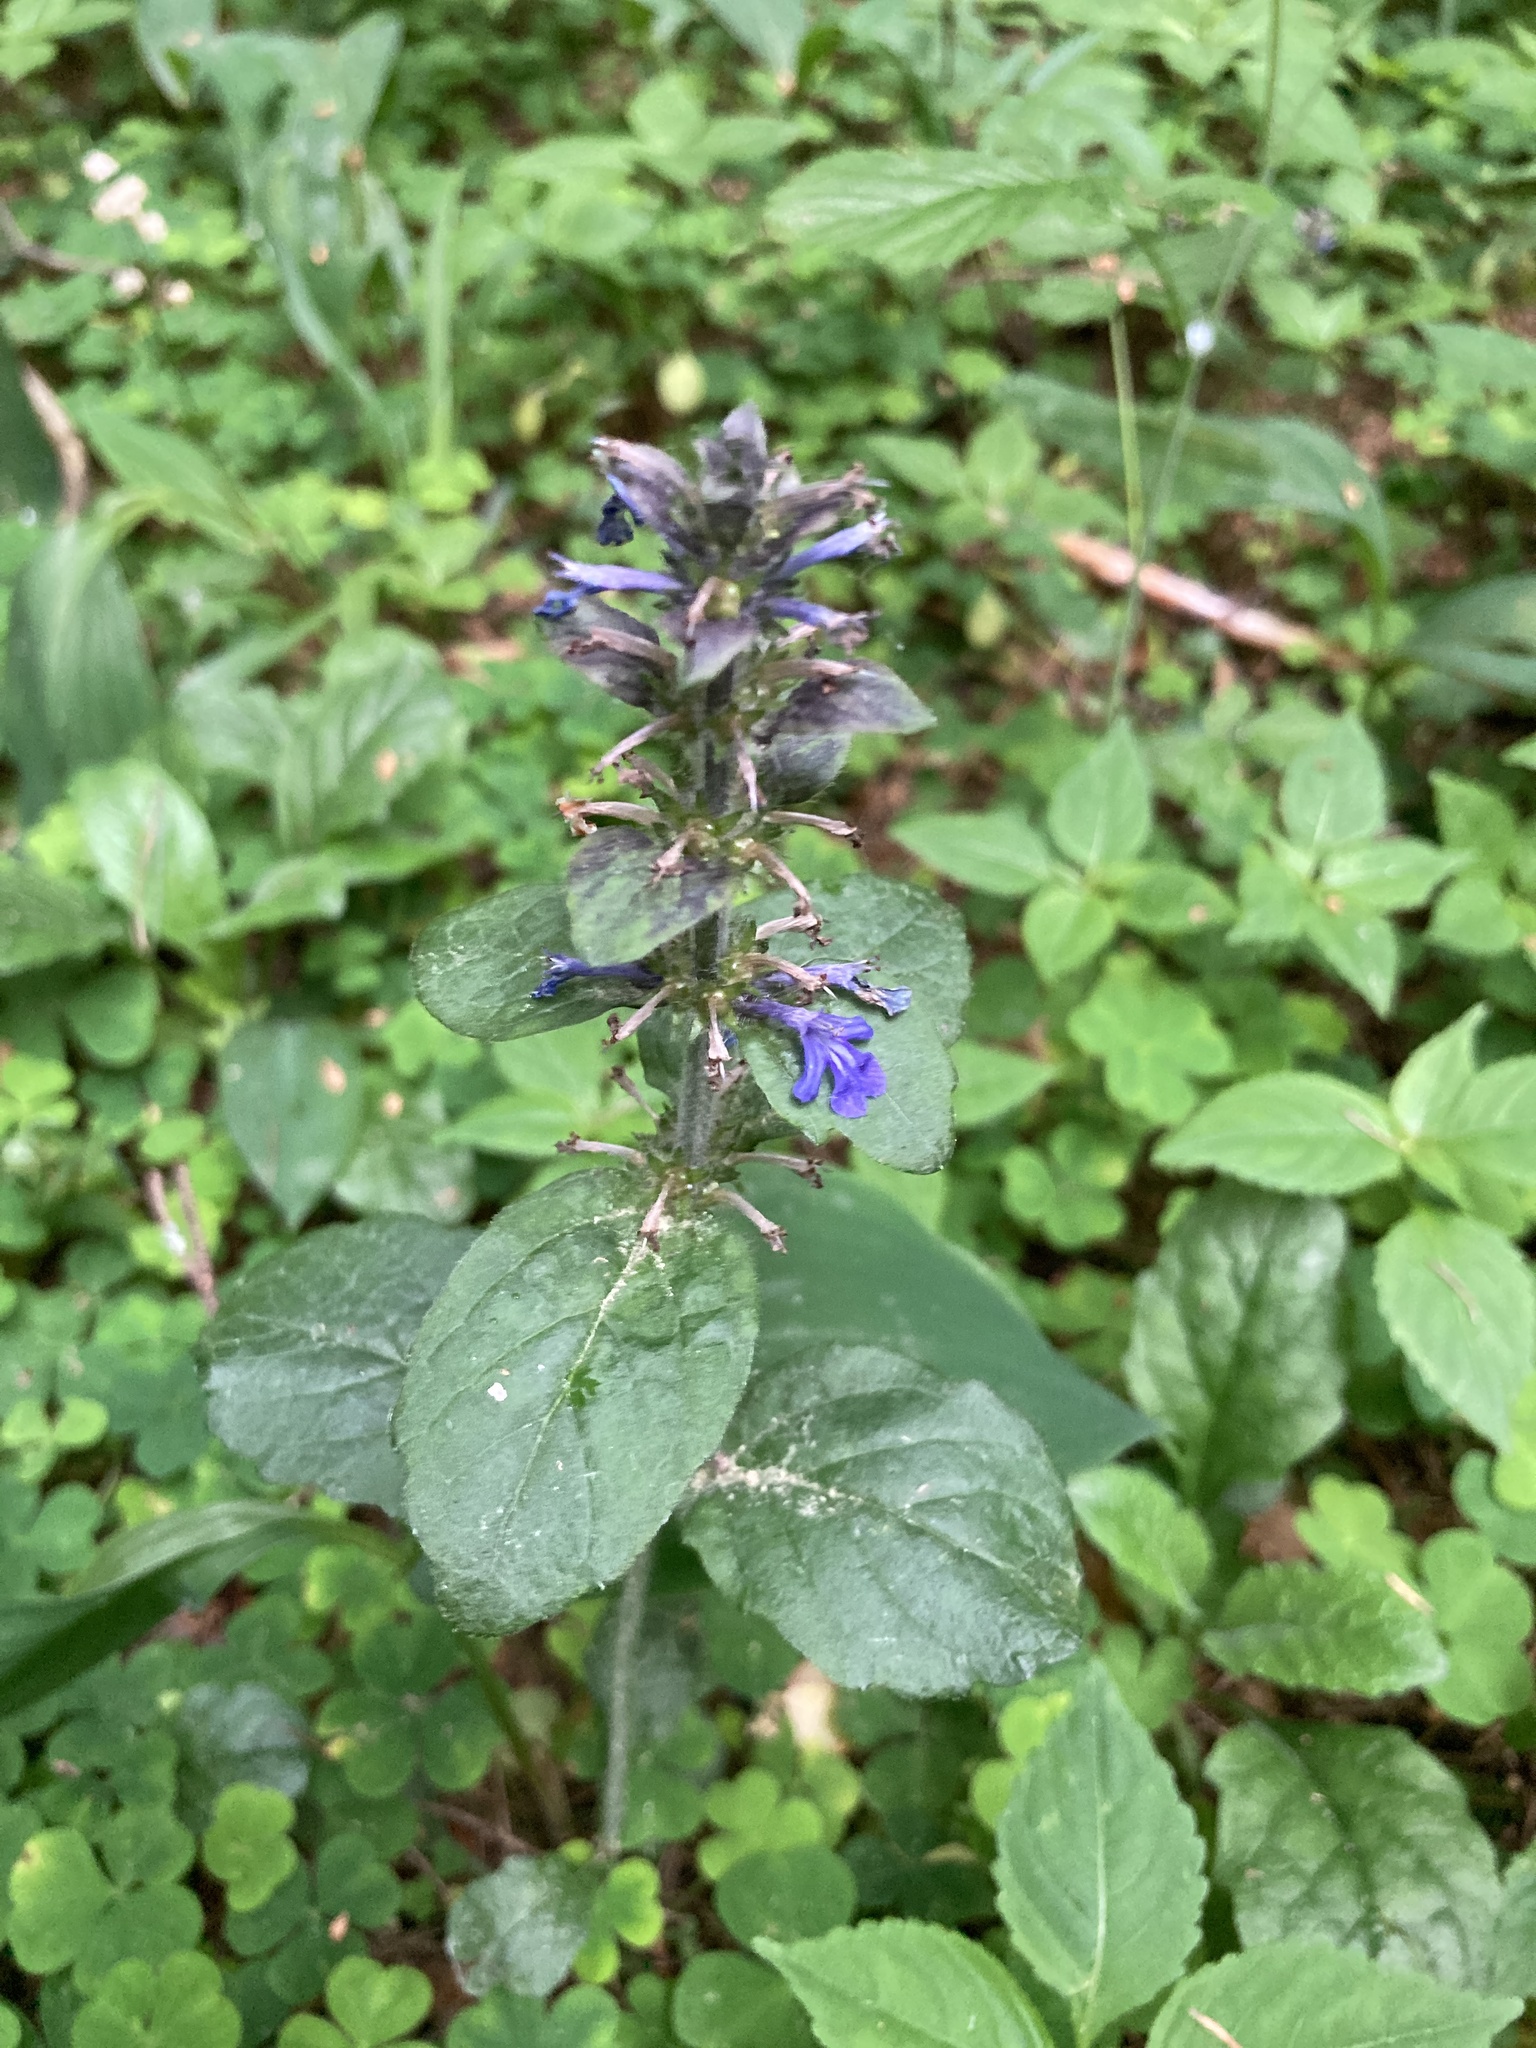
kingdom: Plantae
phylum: Tracheophyta
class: Magnoliopsida
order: Lamiales
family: Lamiaceae
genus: Ajuga
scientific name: Ajuga reptans
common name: Bugle
